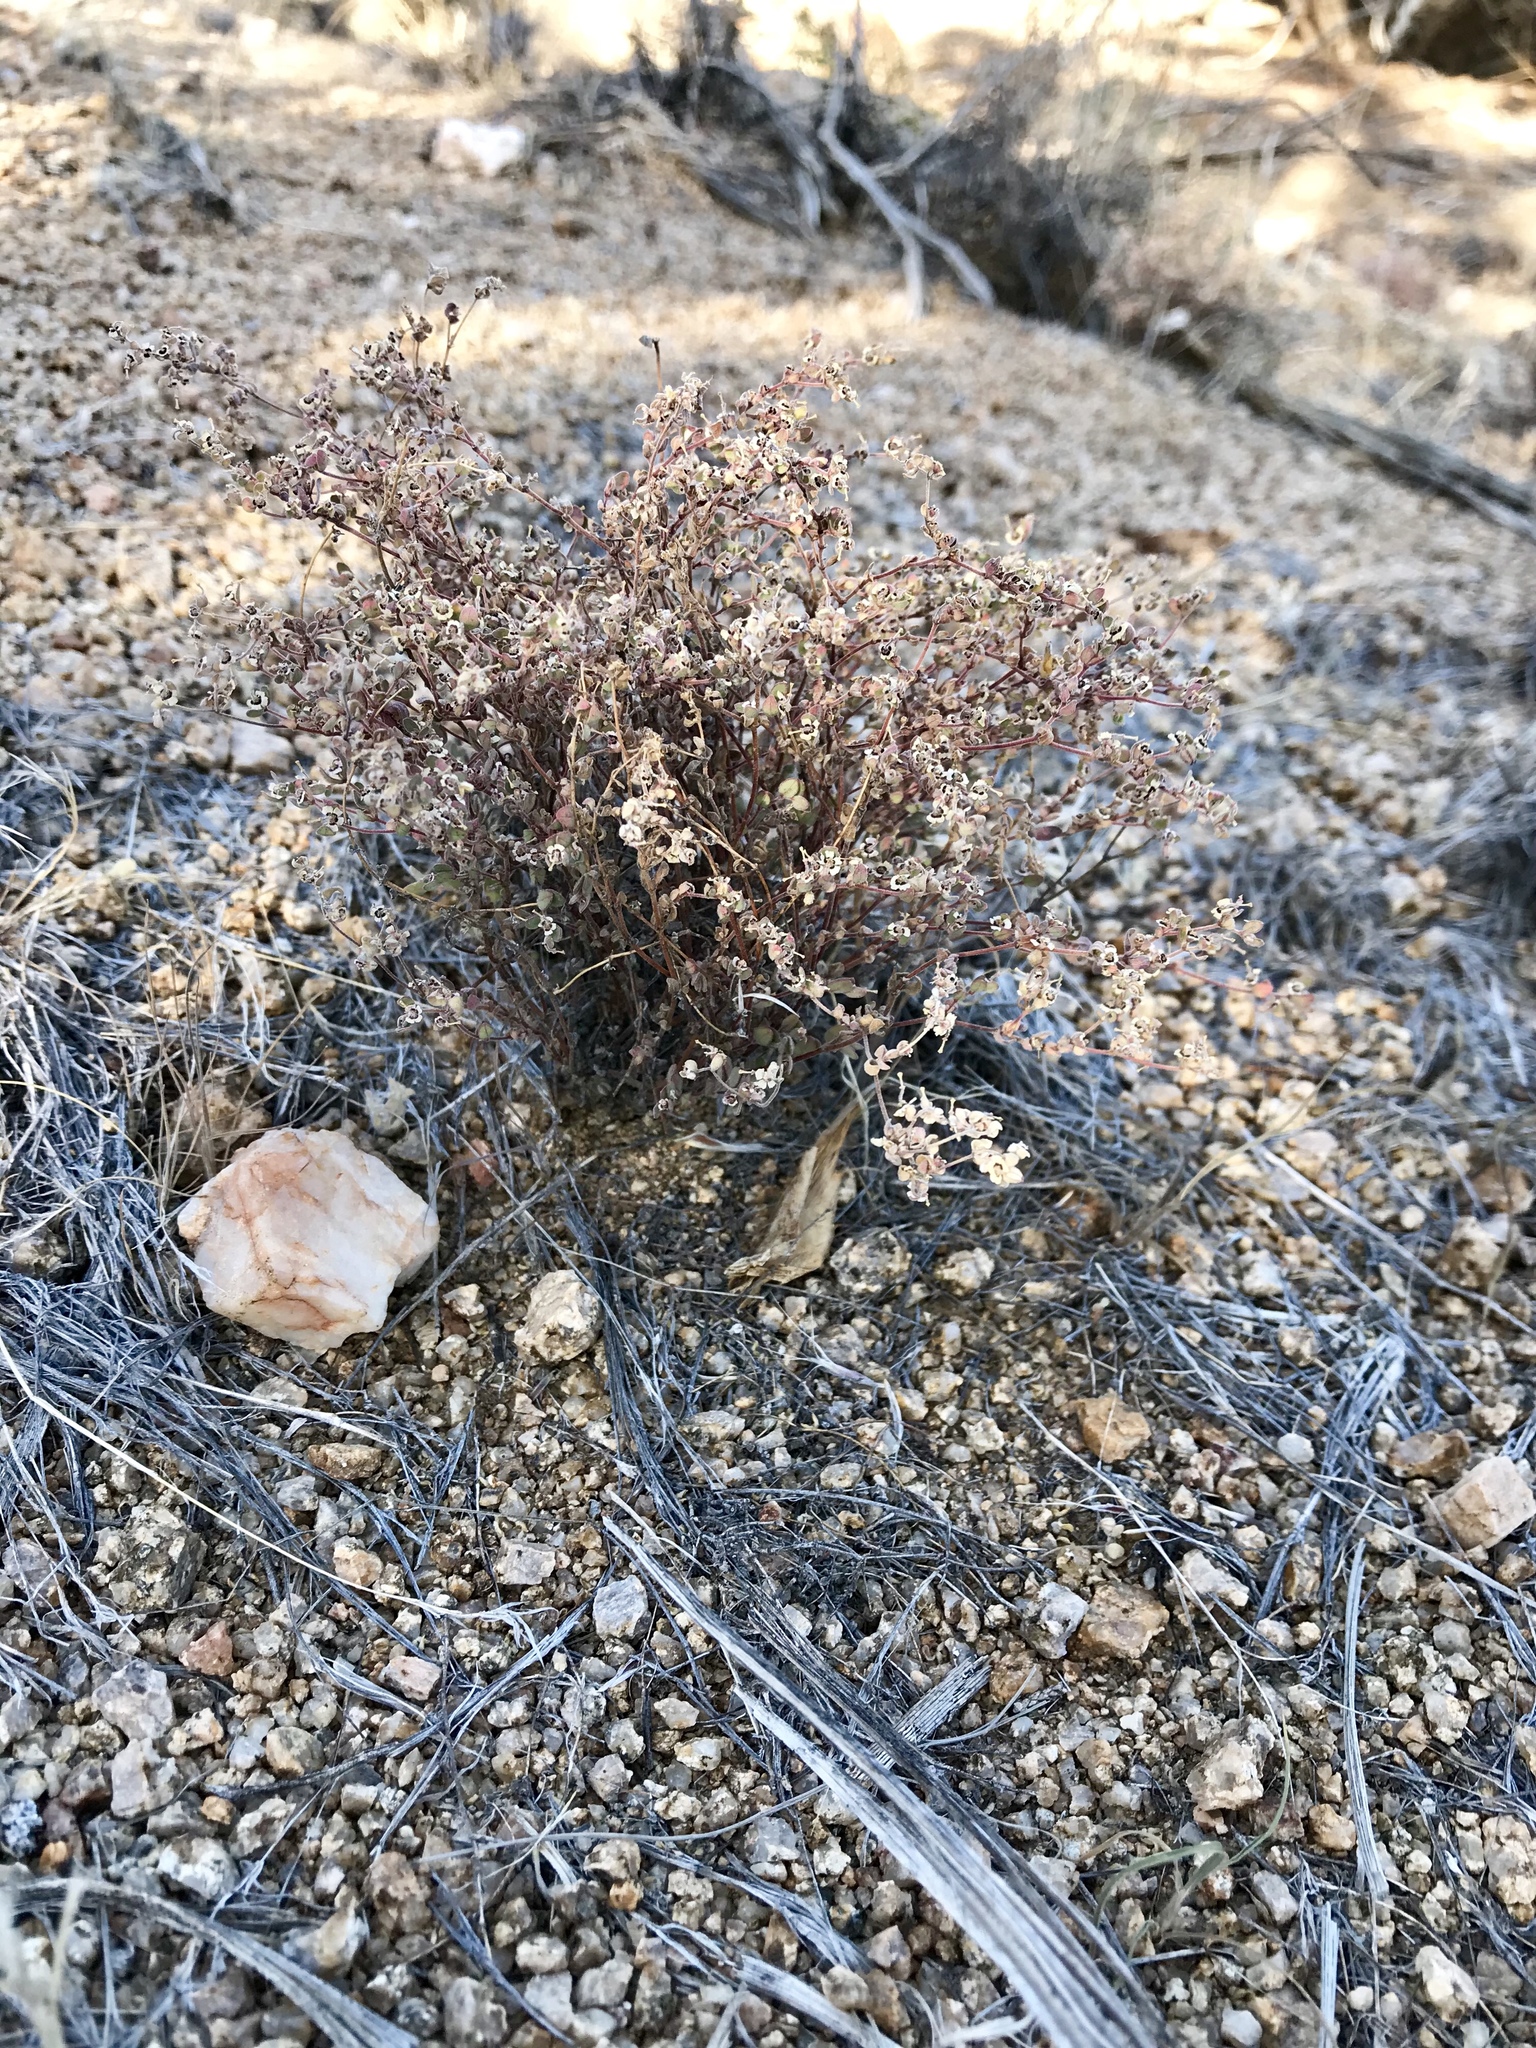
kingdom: Plantae
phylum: Tracheophyta
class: Magnoliopsida
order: Malpighiales
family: Euphorbiaceae
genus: Euphorbia
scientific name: Euphorbia melanadenia
